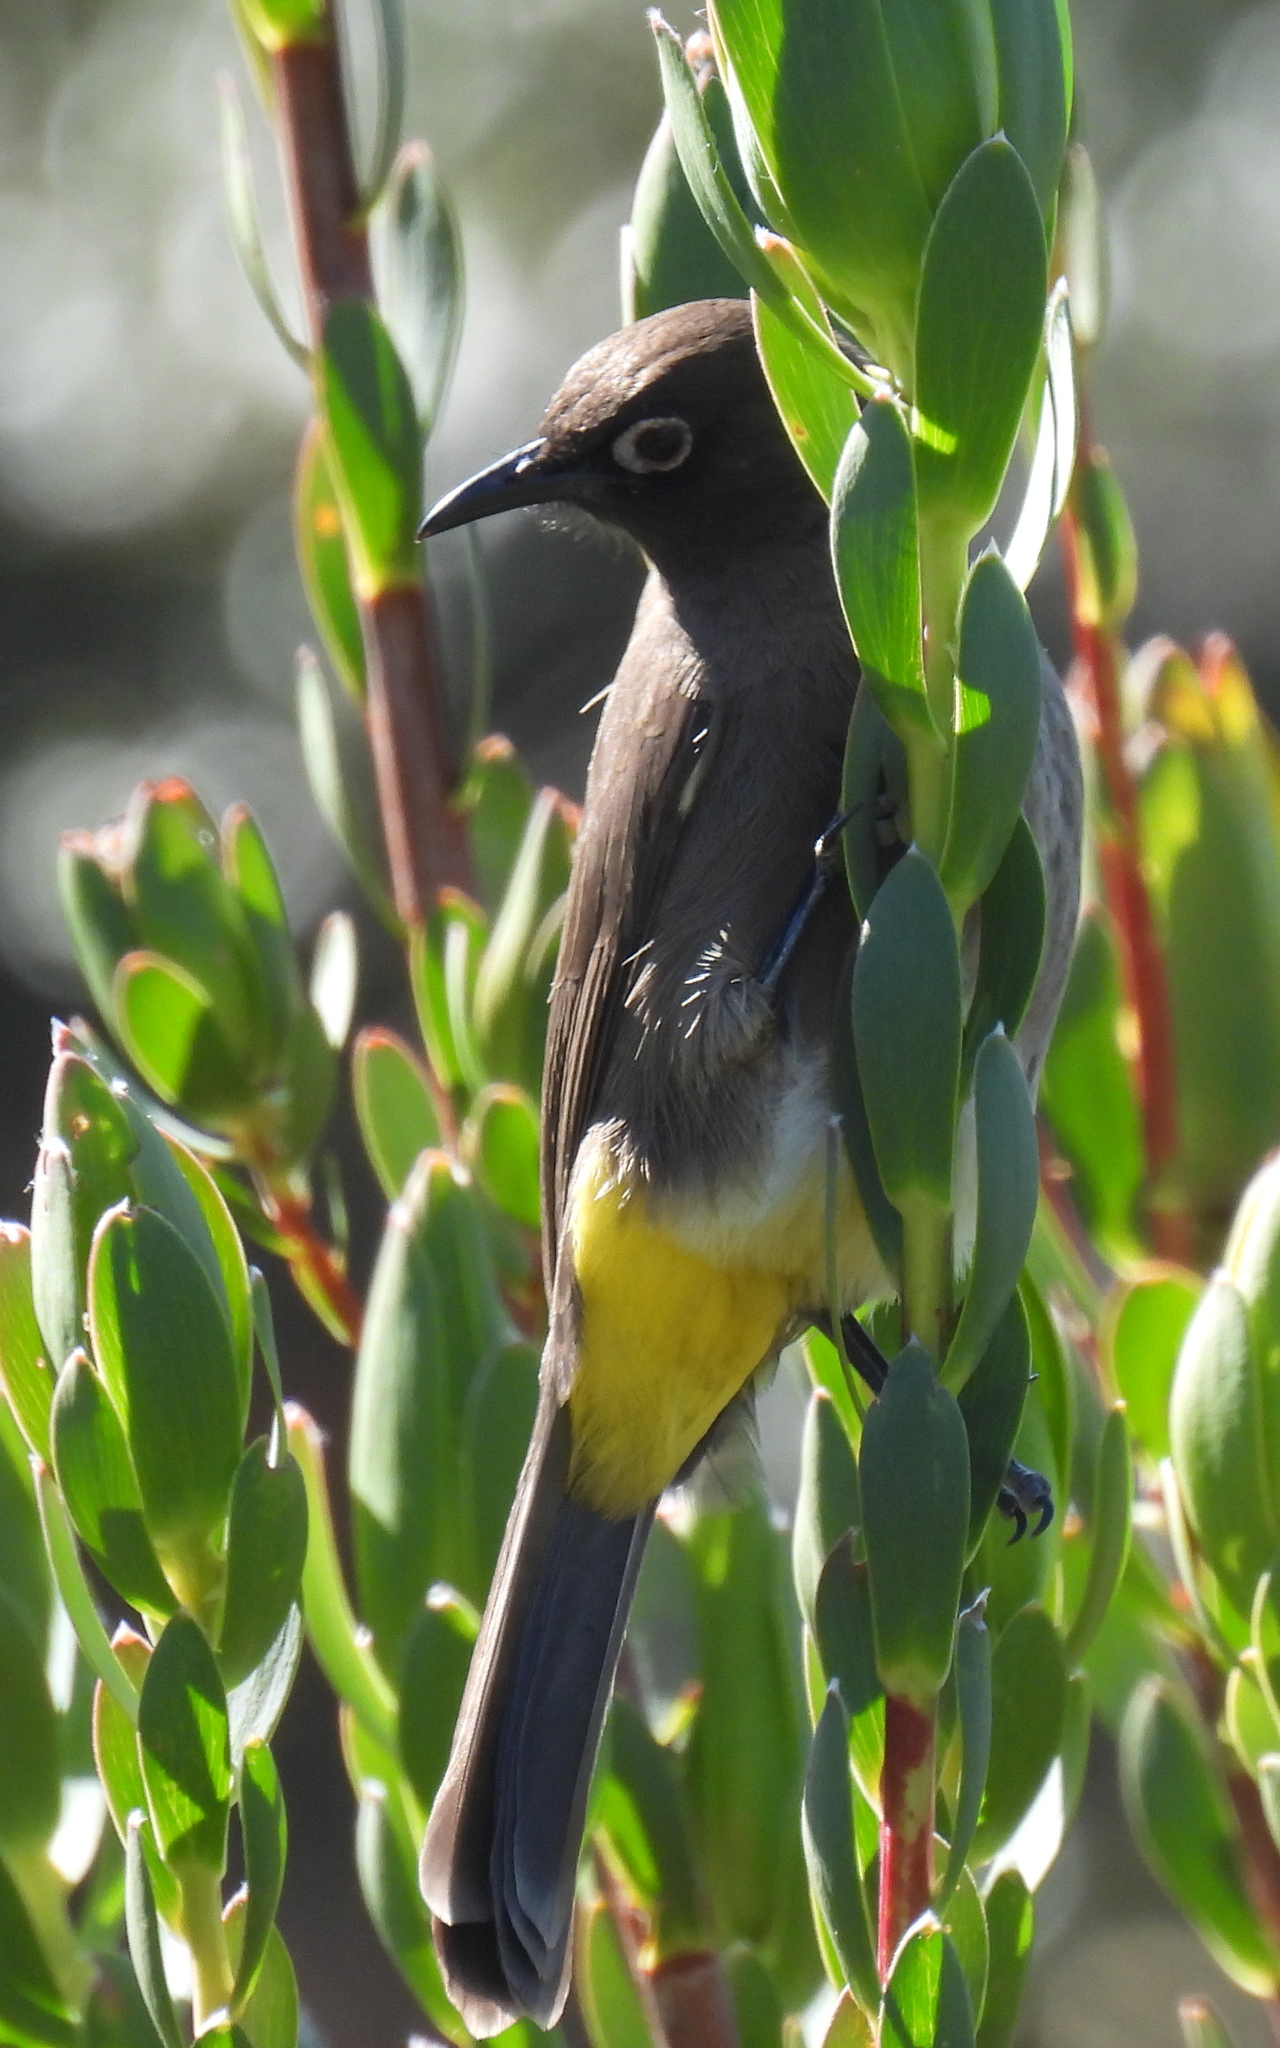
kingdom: Animalia
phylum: Chordata
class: Aves
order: Passeriformes
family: Pycnonotidae
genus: Pycnonotus
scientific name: Pycnonotus capensis
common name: Cape bulbul
